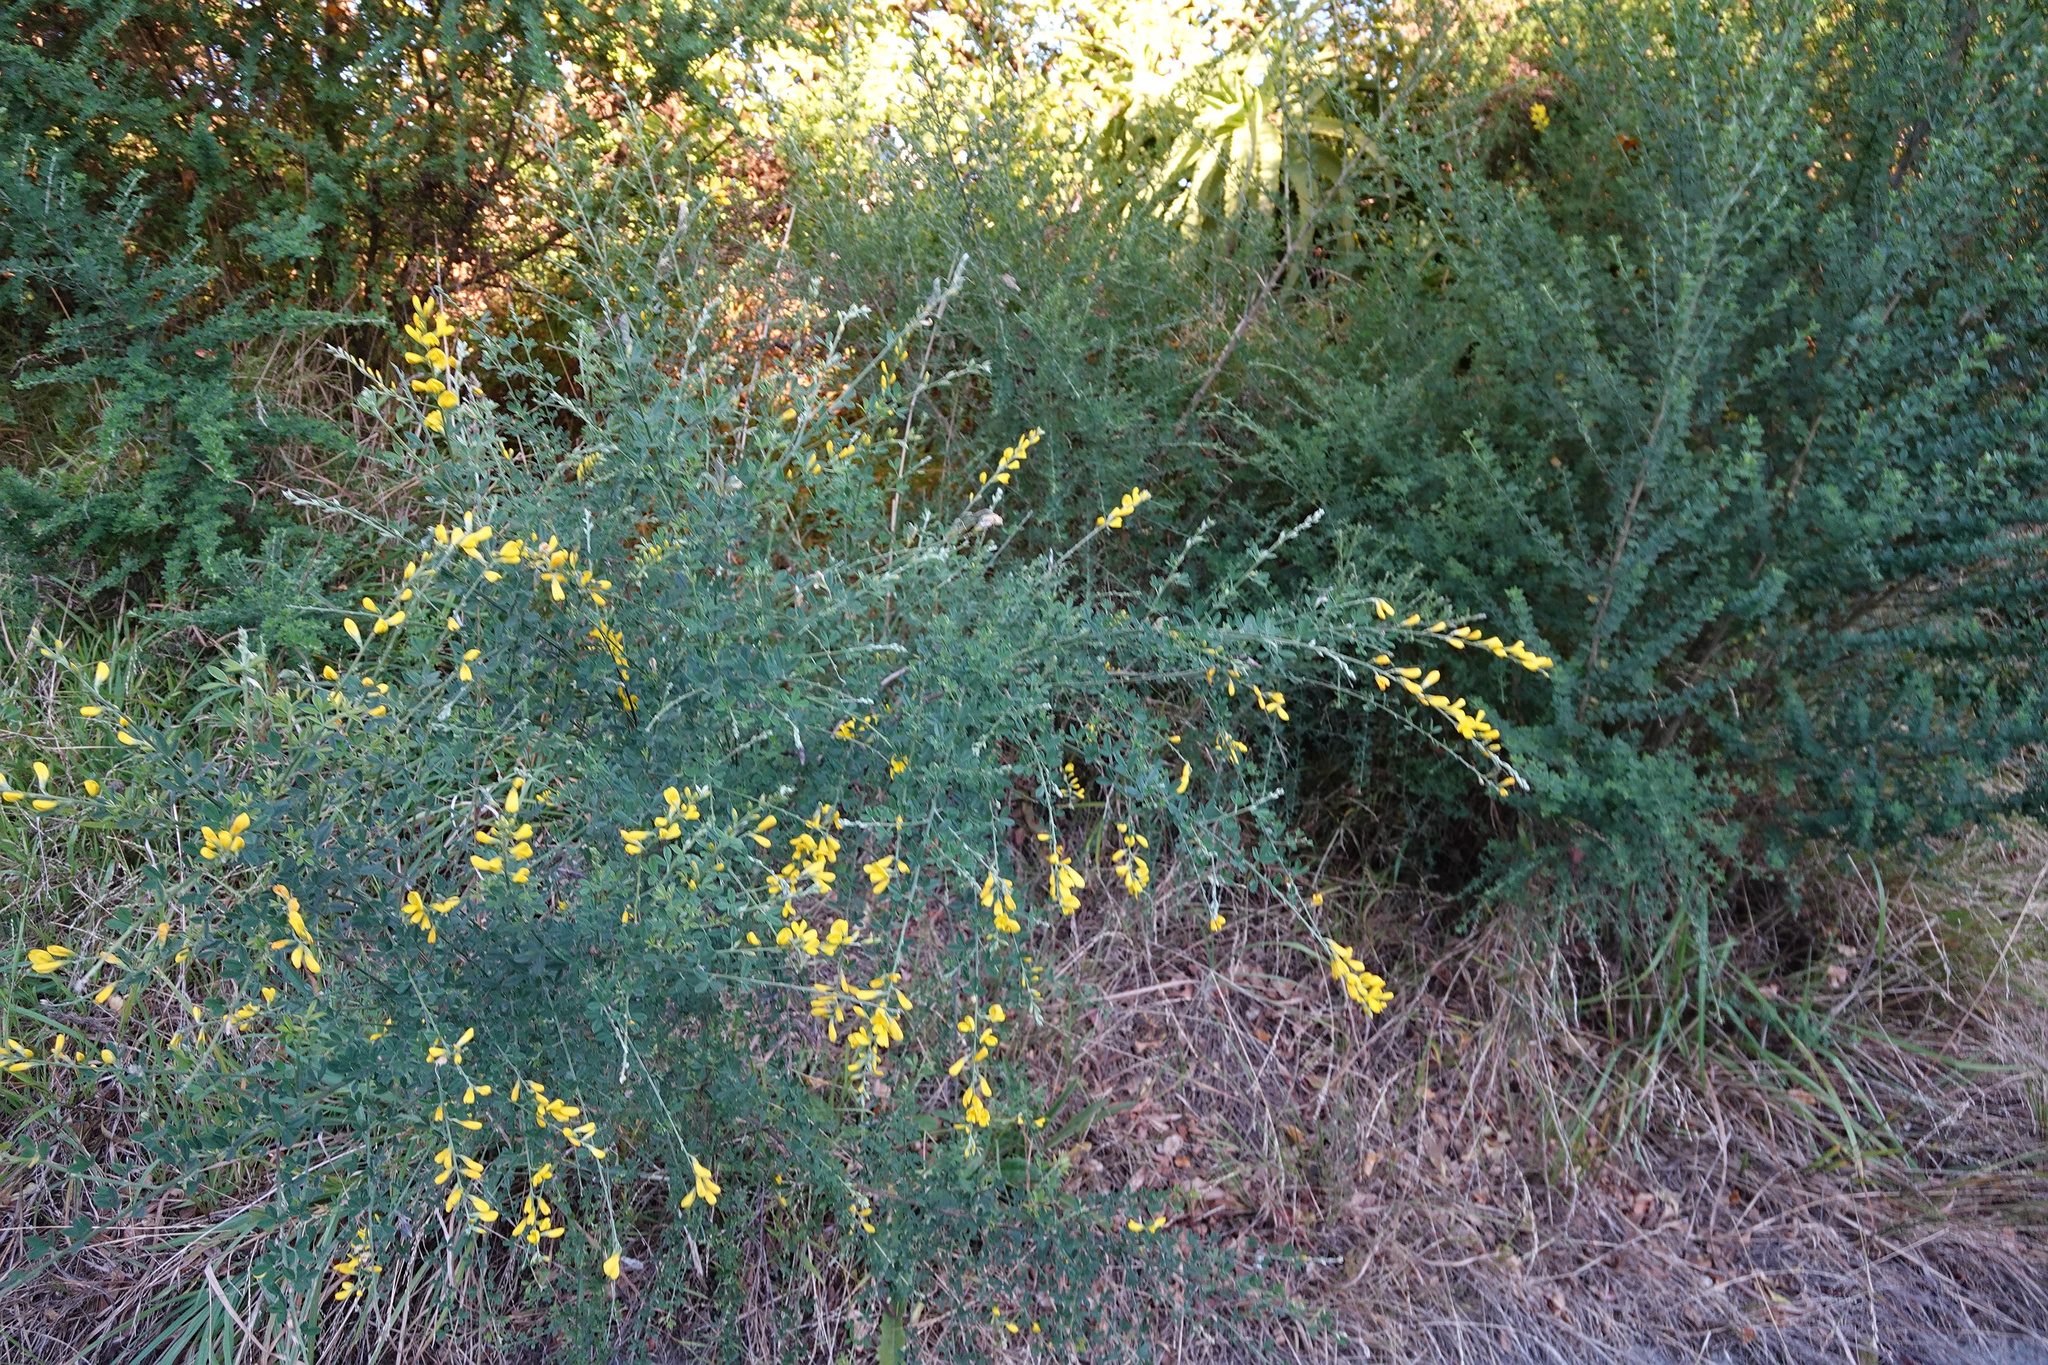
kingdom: Plantae
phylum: Tracheophyta
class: Magnoliopsida
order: Fabales
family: Fabaceae
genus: Genista
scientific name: Genista stenopetala
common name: Leafy broom
